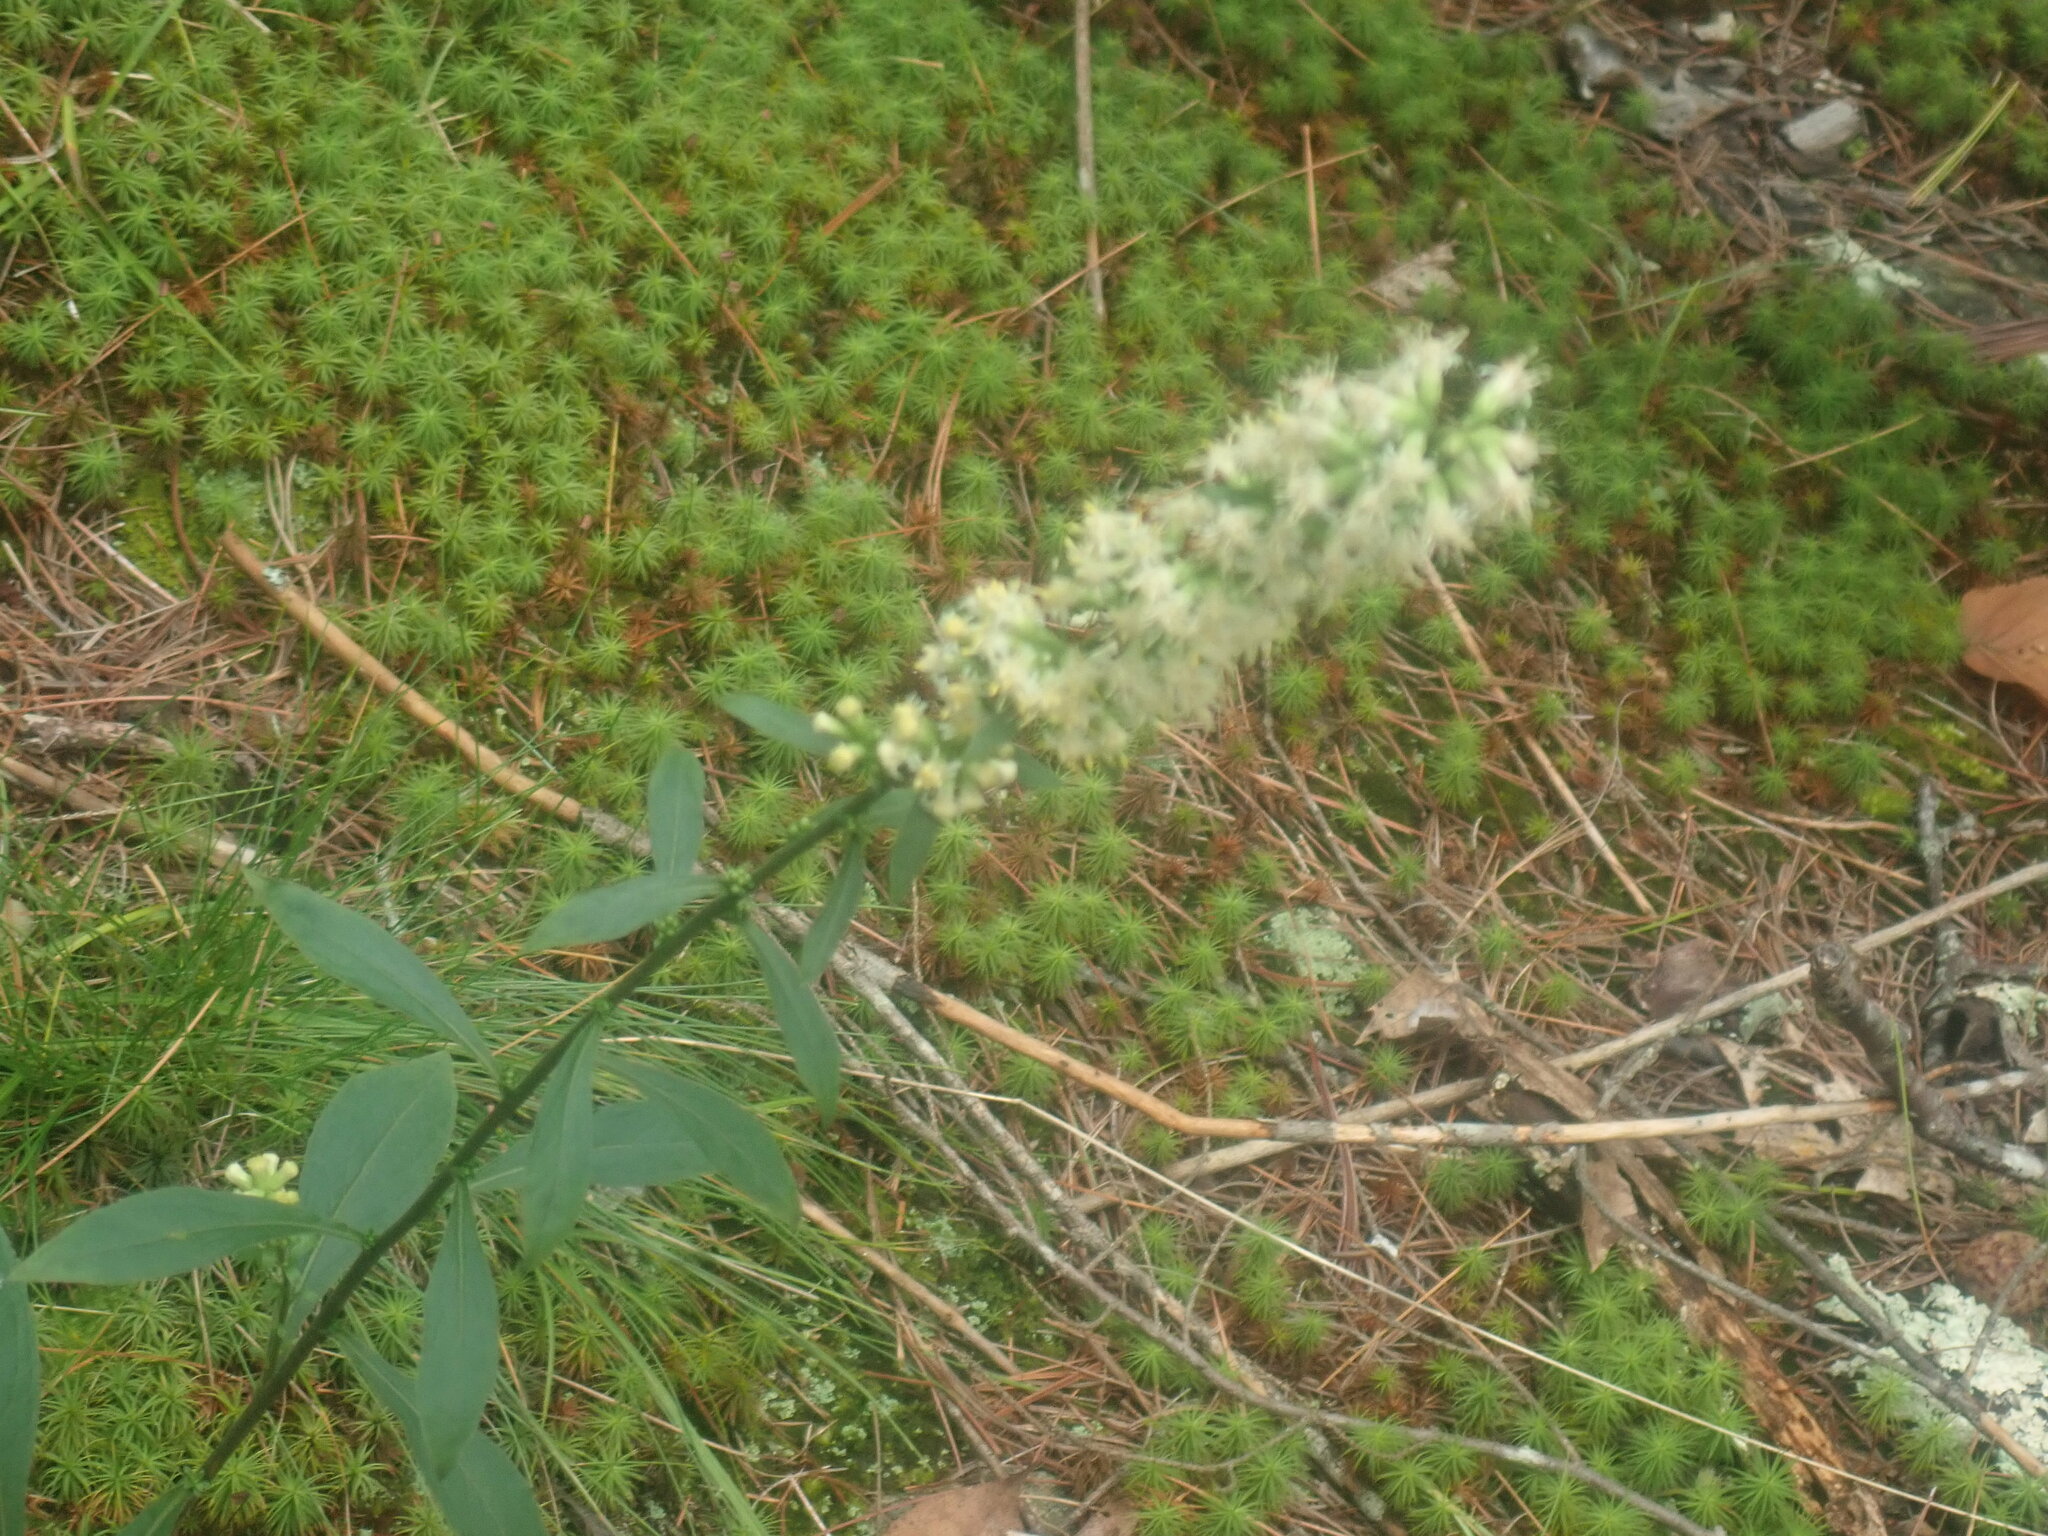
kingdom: Plantae
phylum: Tracheophyta
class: Magnoliopsida
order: Asterales
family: Asteraceae
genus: Solidago
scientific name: Solidago bicolor
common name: Silverrod
